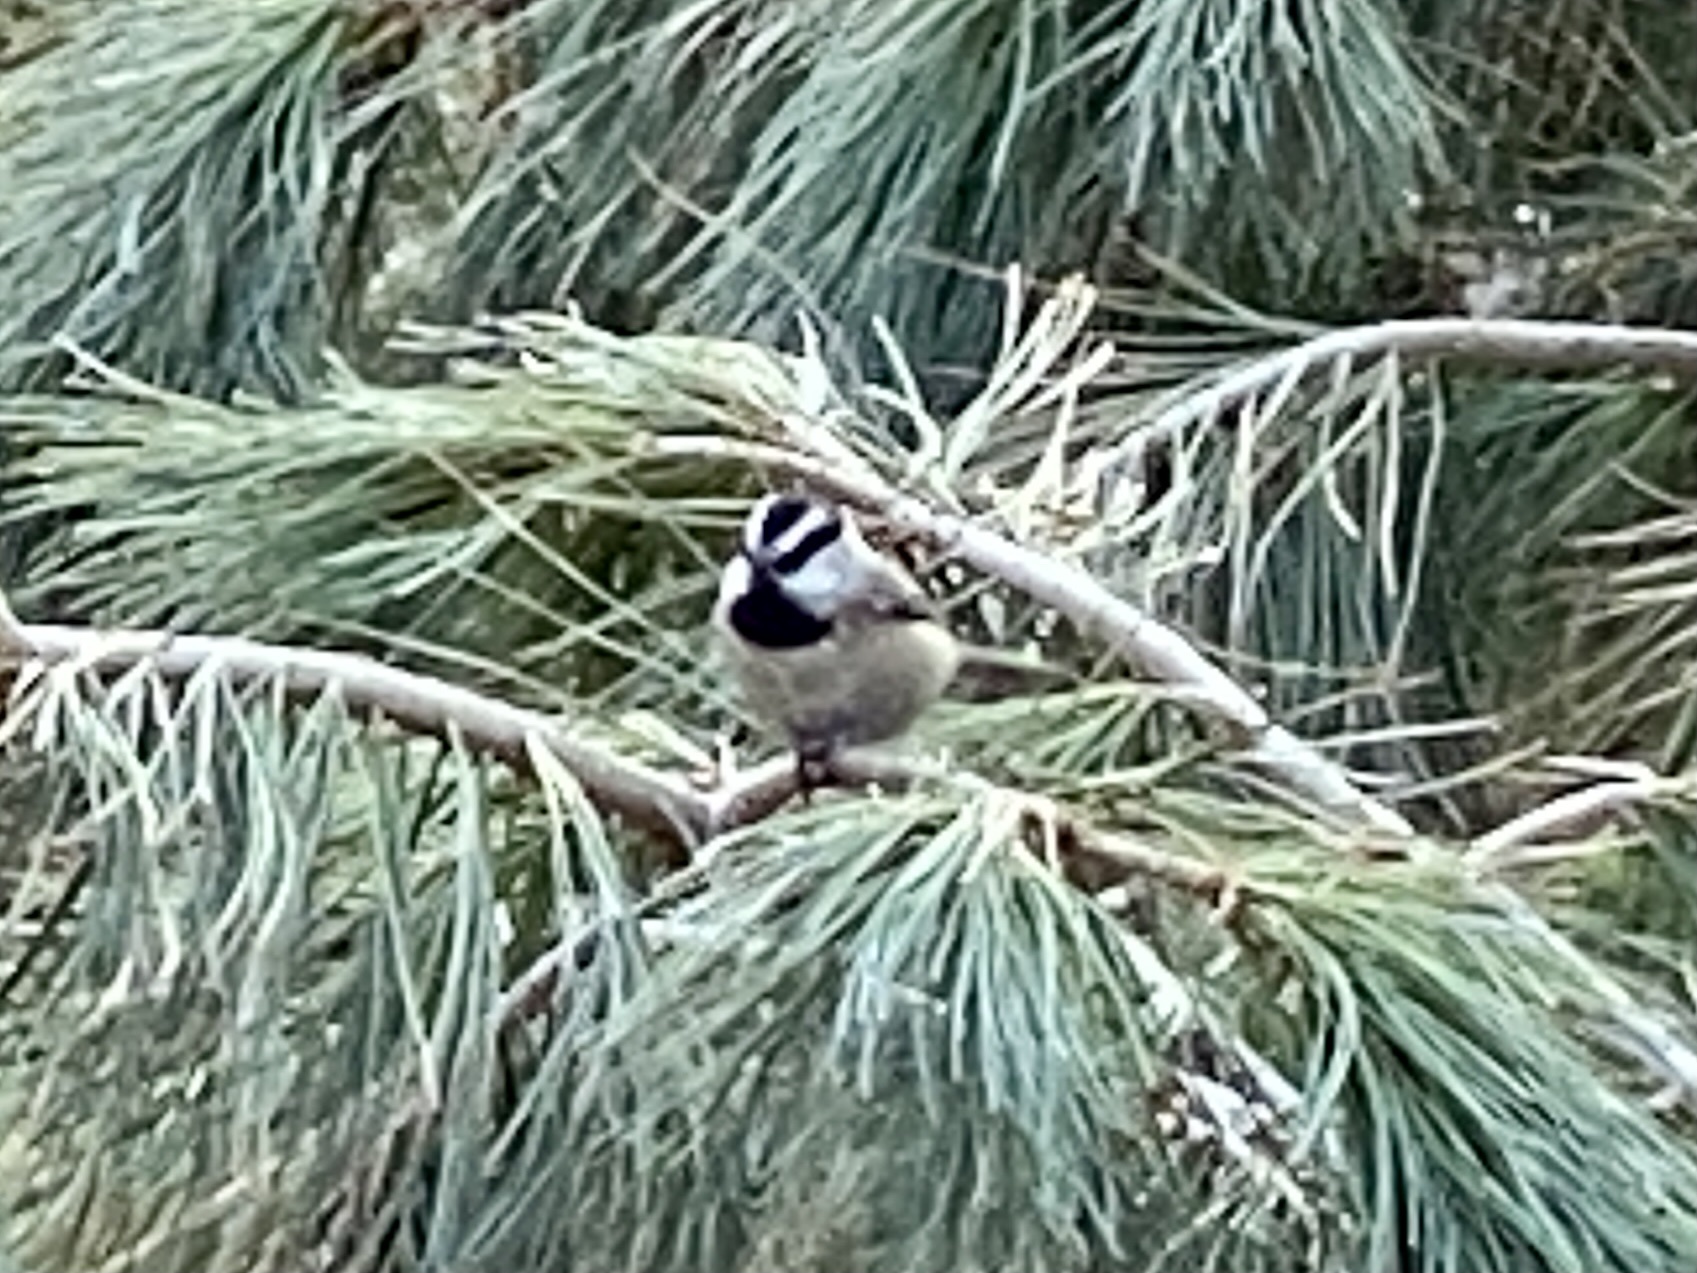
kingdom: Animalia
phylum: Chordata
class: Aves
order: Passeriformes
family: Paridae
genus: Poecile
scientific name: Poecile gambeli
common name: Mountain chickadee
